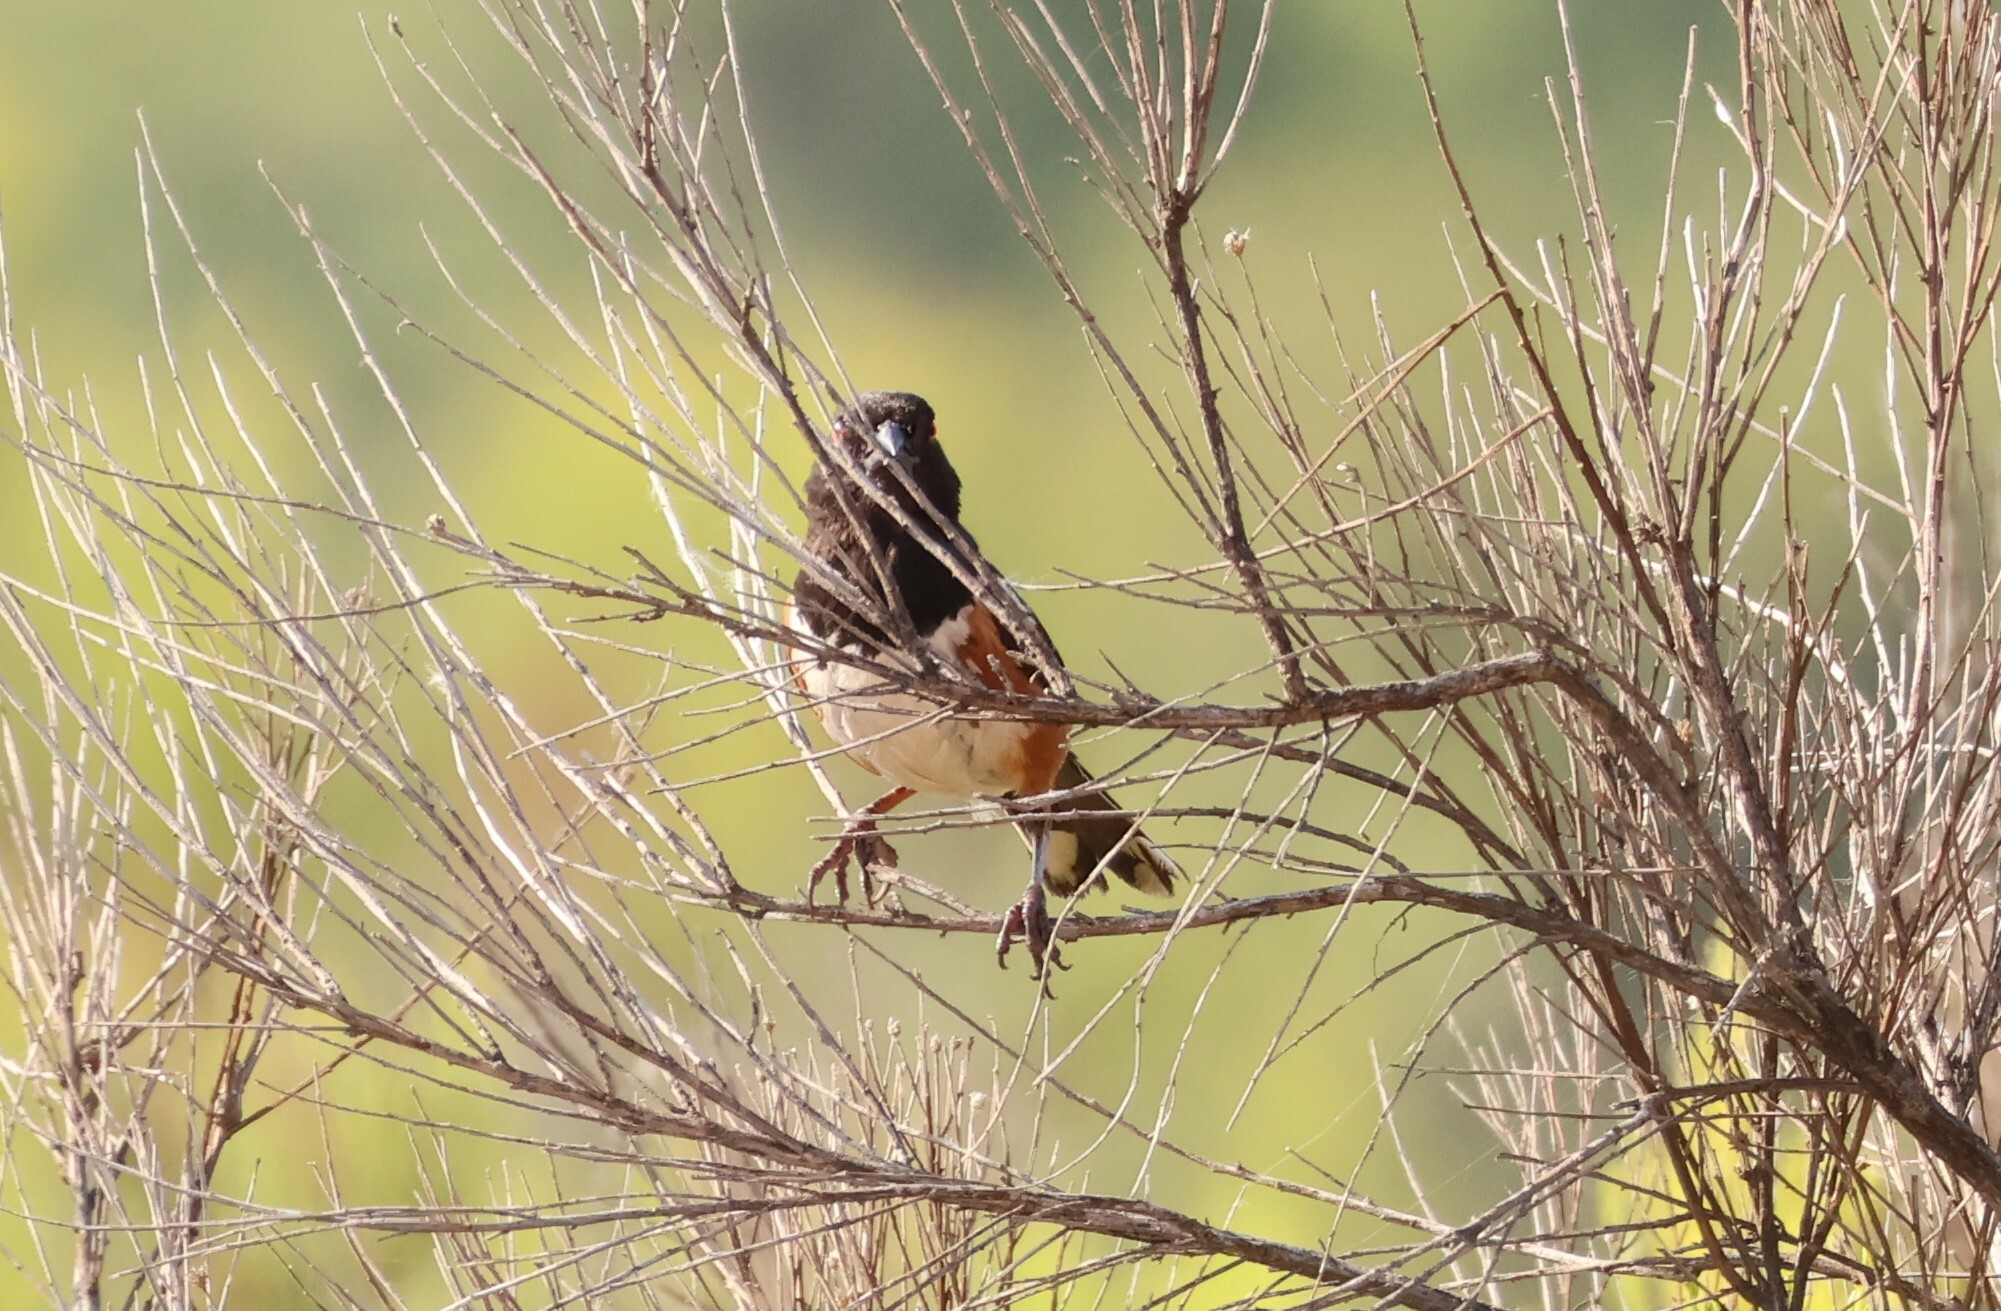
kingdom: Animalia
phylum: Chordata
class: Aves
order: Passeriformes
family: Passerellidae
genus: Pipilo
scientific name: Pipilo maculatus
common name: Spotted towhee
